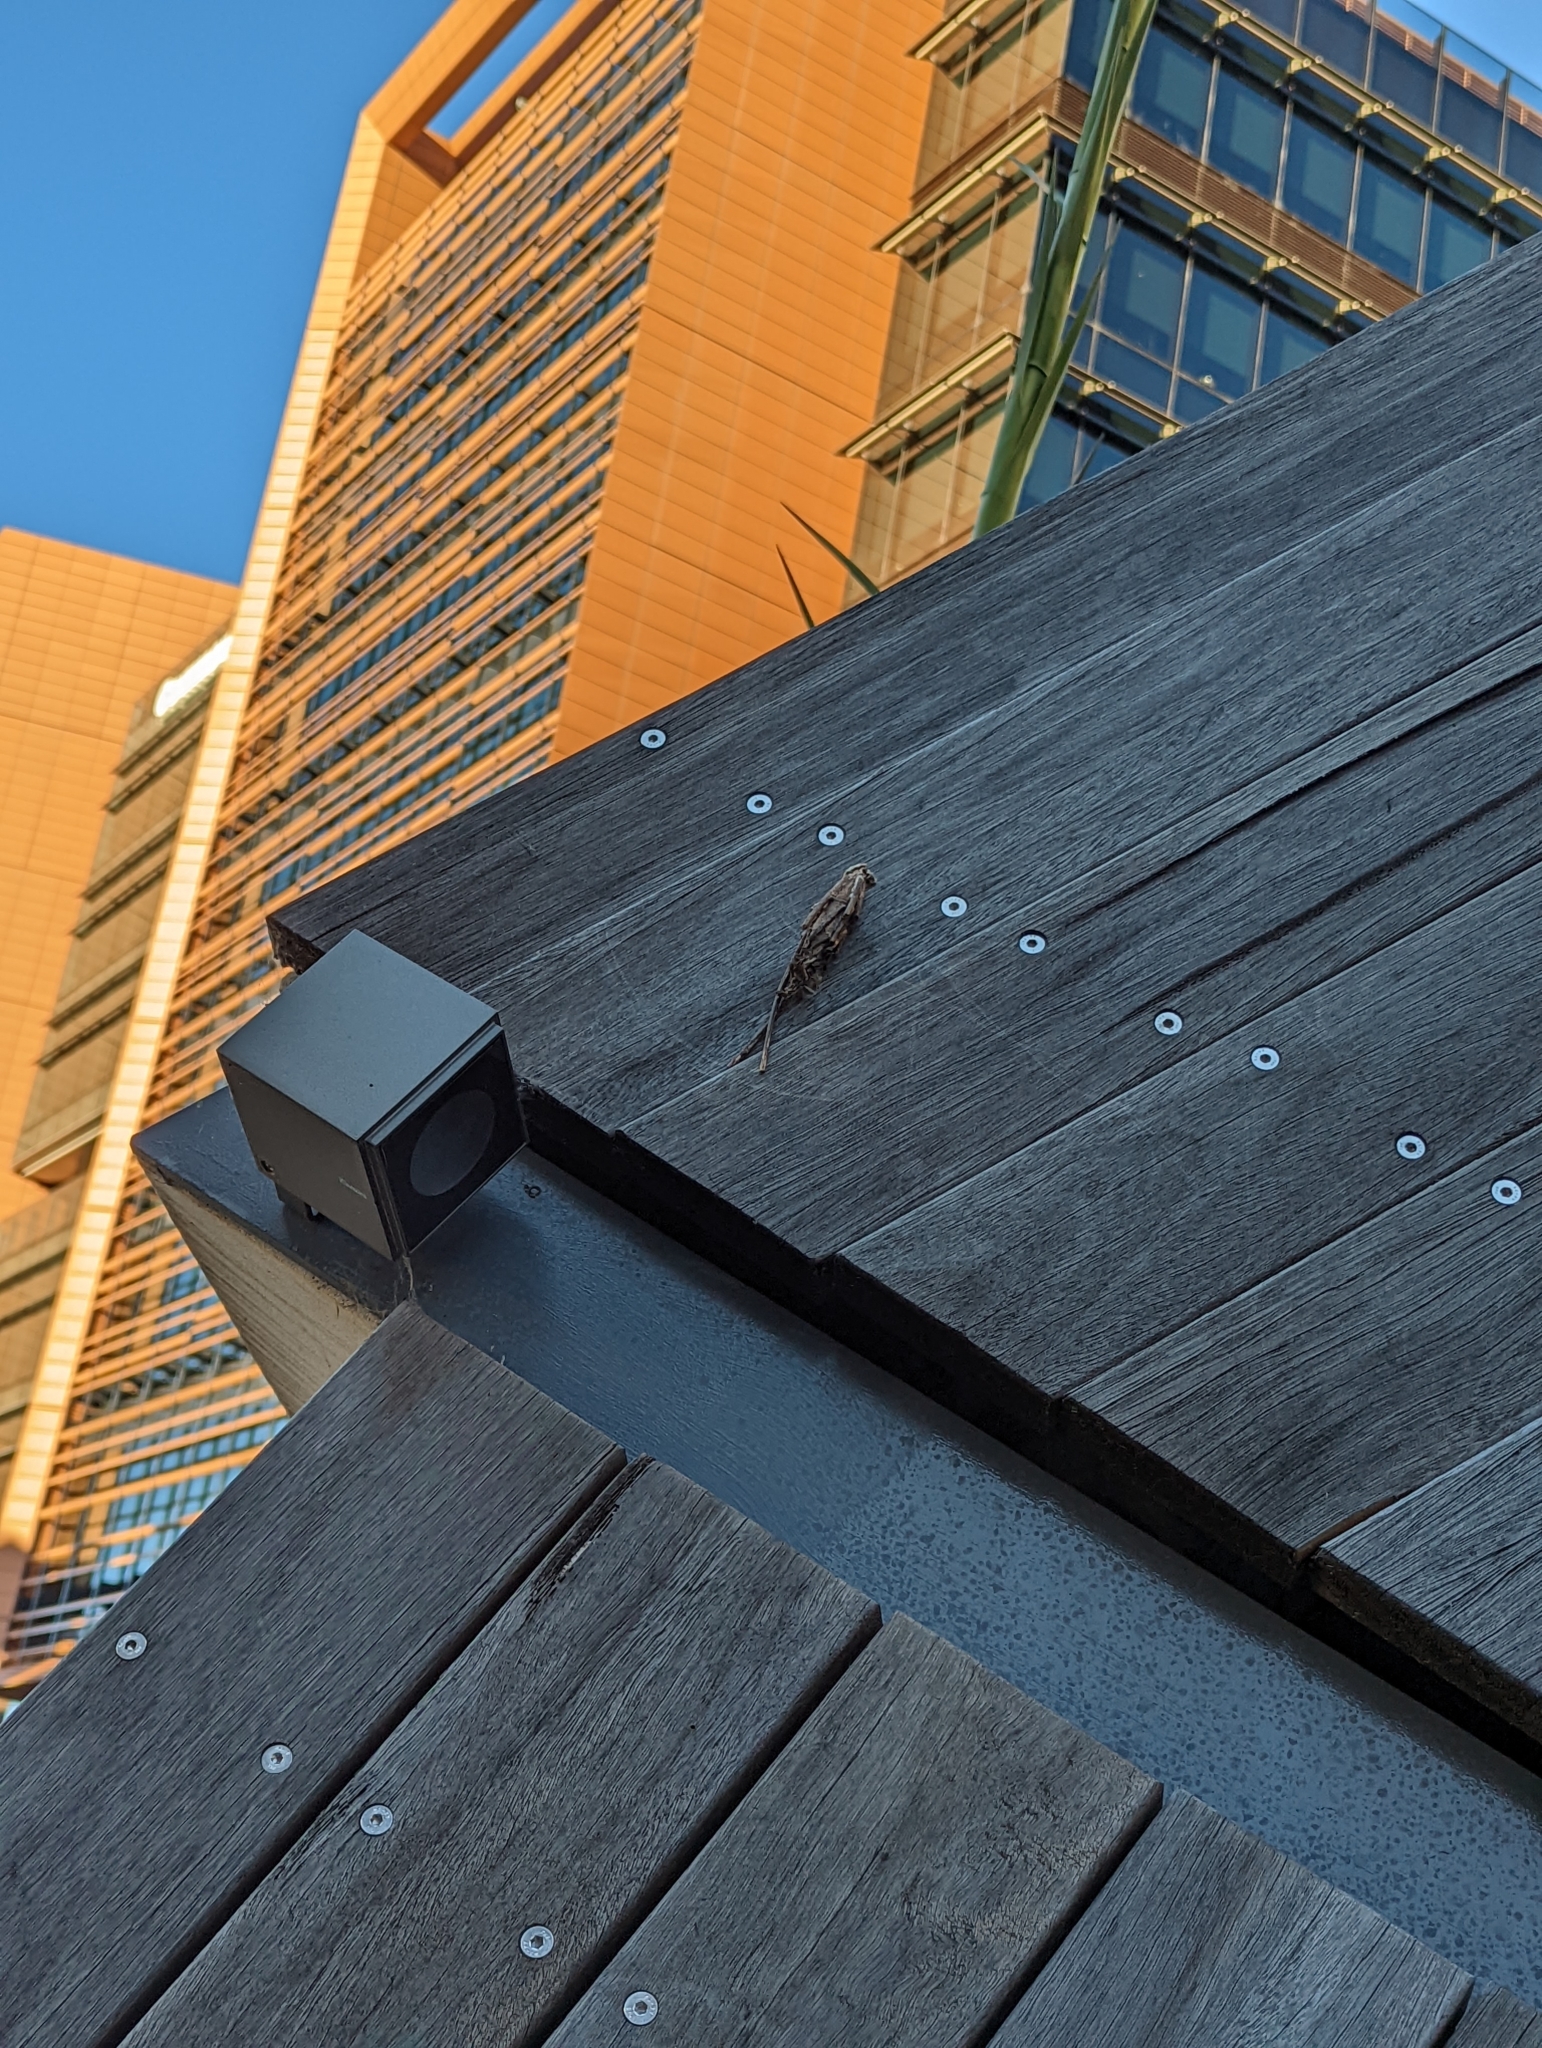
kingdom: Animalia
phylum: Arthropoda
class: Insecta
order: Lepidoptera
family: Psychidae
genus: Metura
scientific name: Metura elongatus
